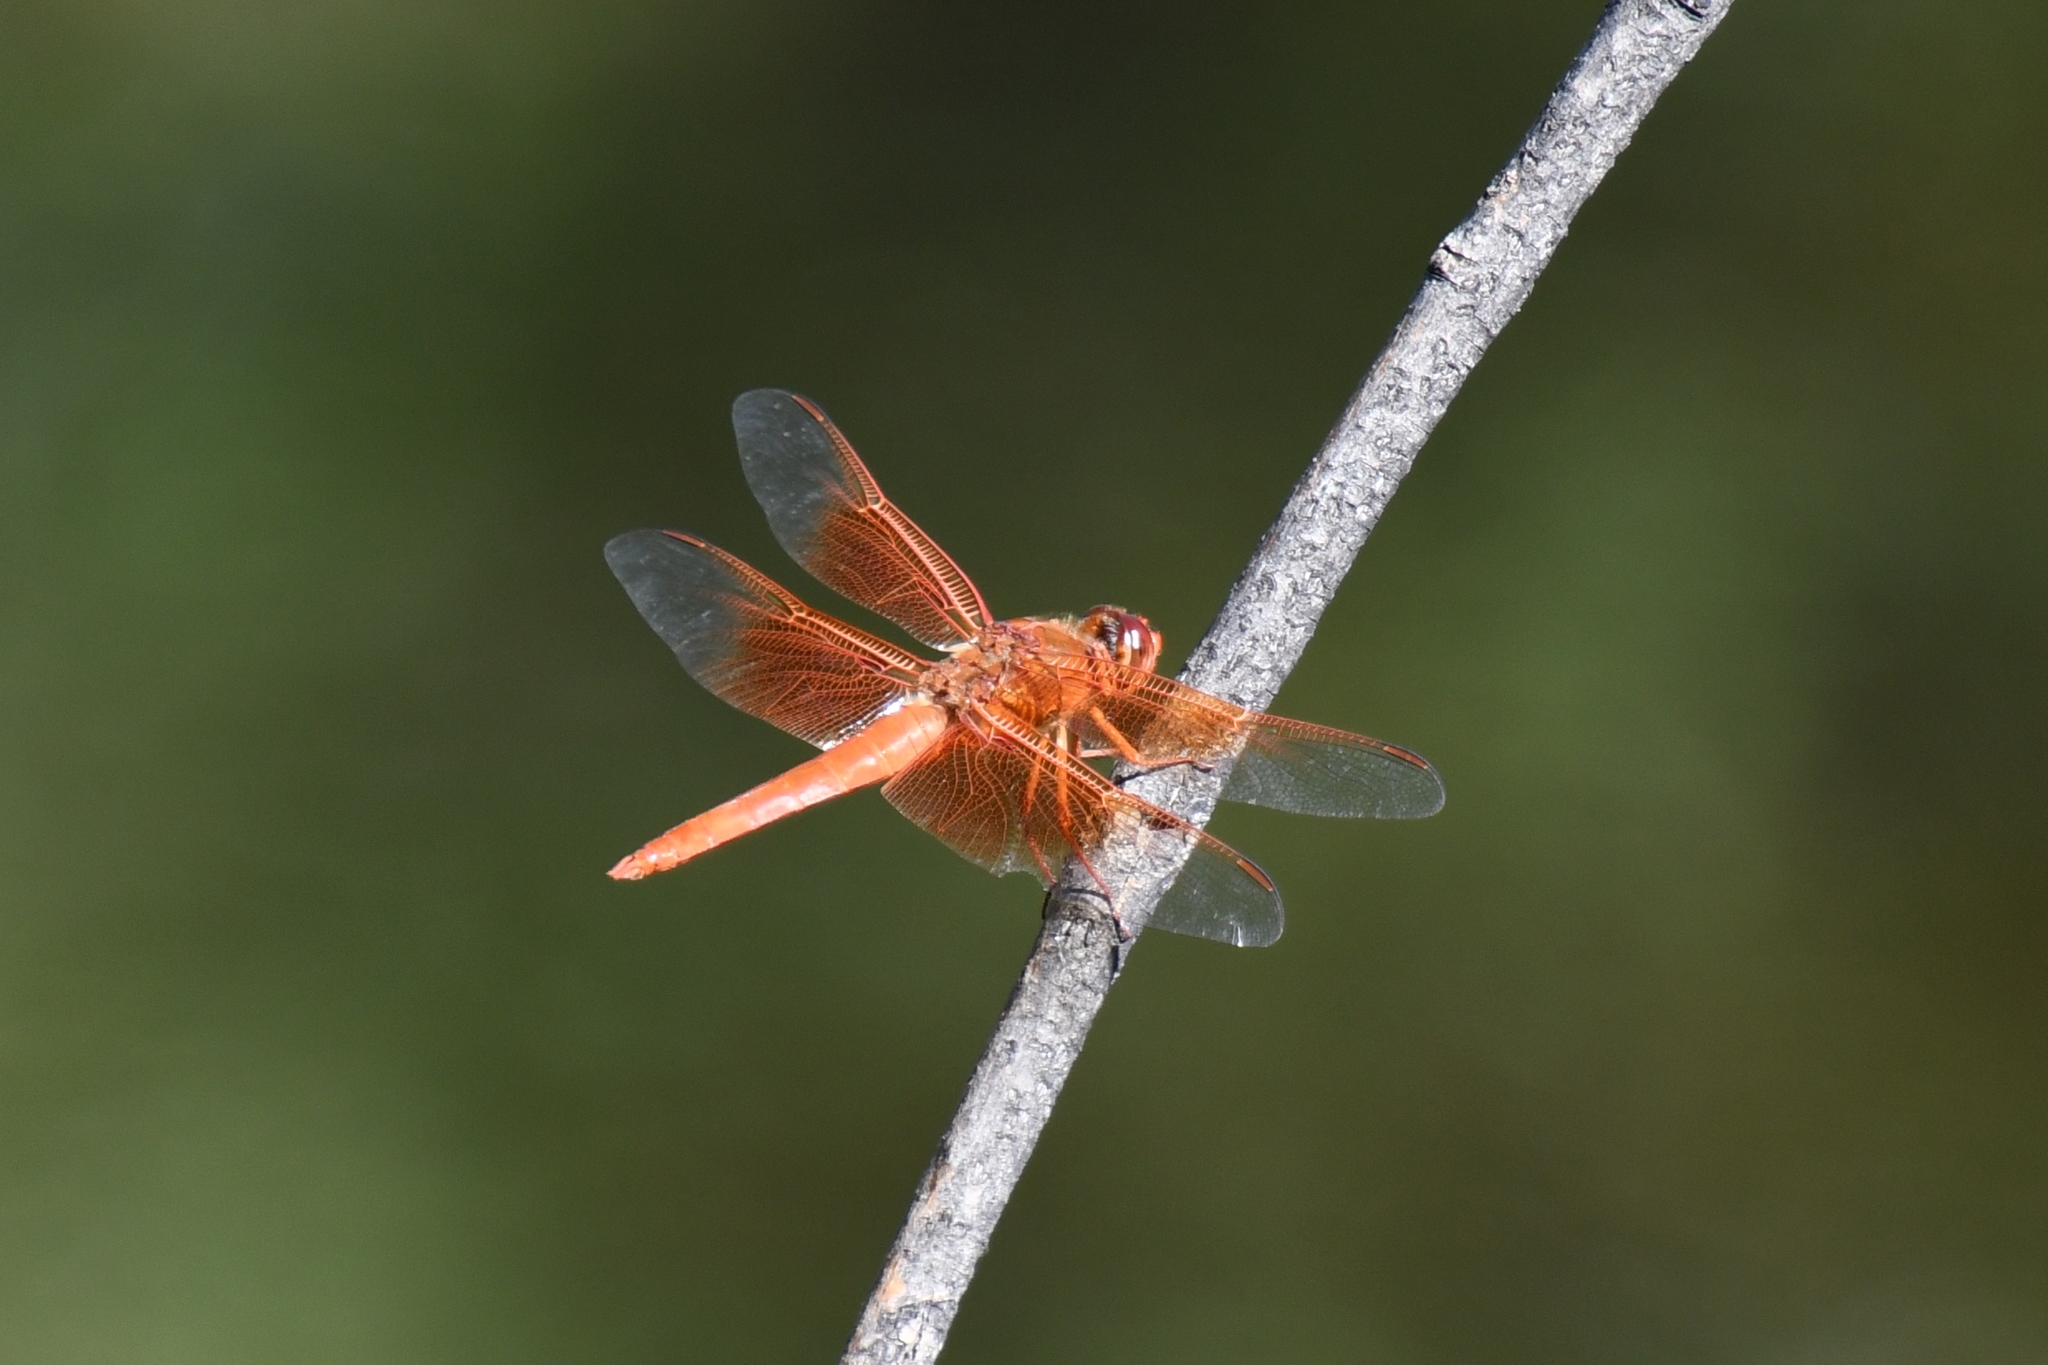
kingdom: Animalia
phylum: Arthropoda
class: Insecta
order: Odonata
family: Libellulidae
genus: Libellula
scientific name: Libellula saturata
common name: Flame skimmer
